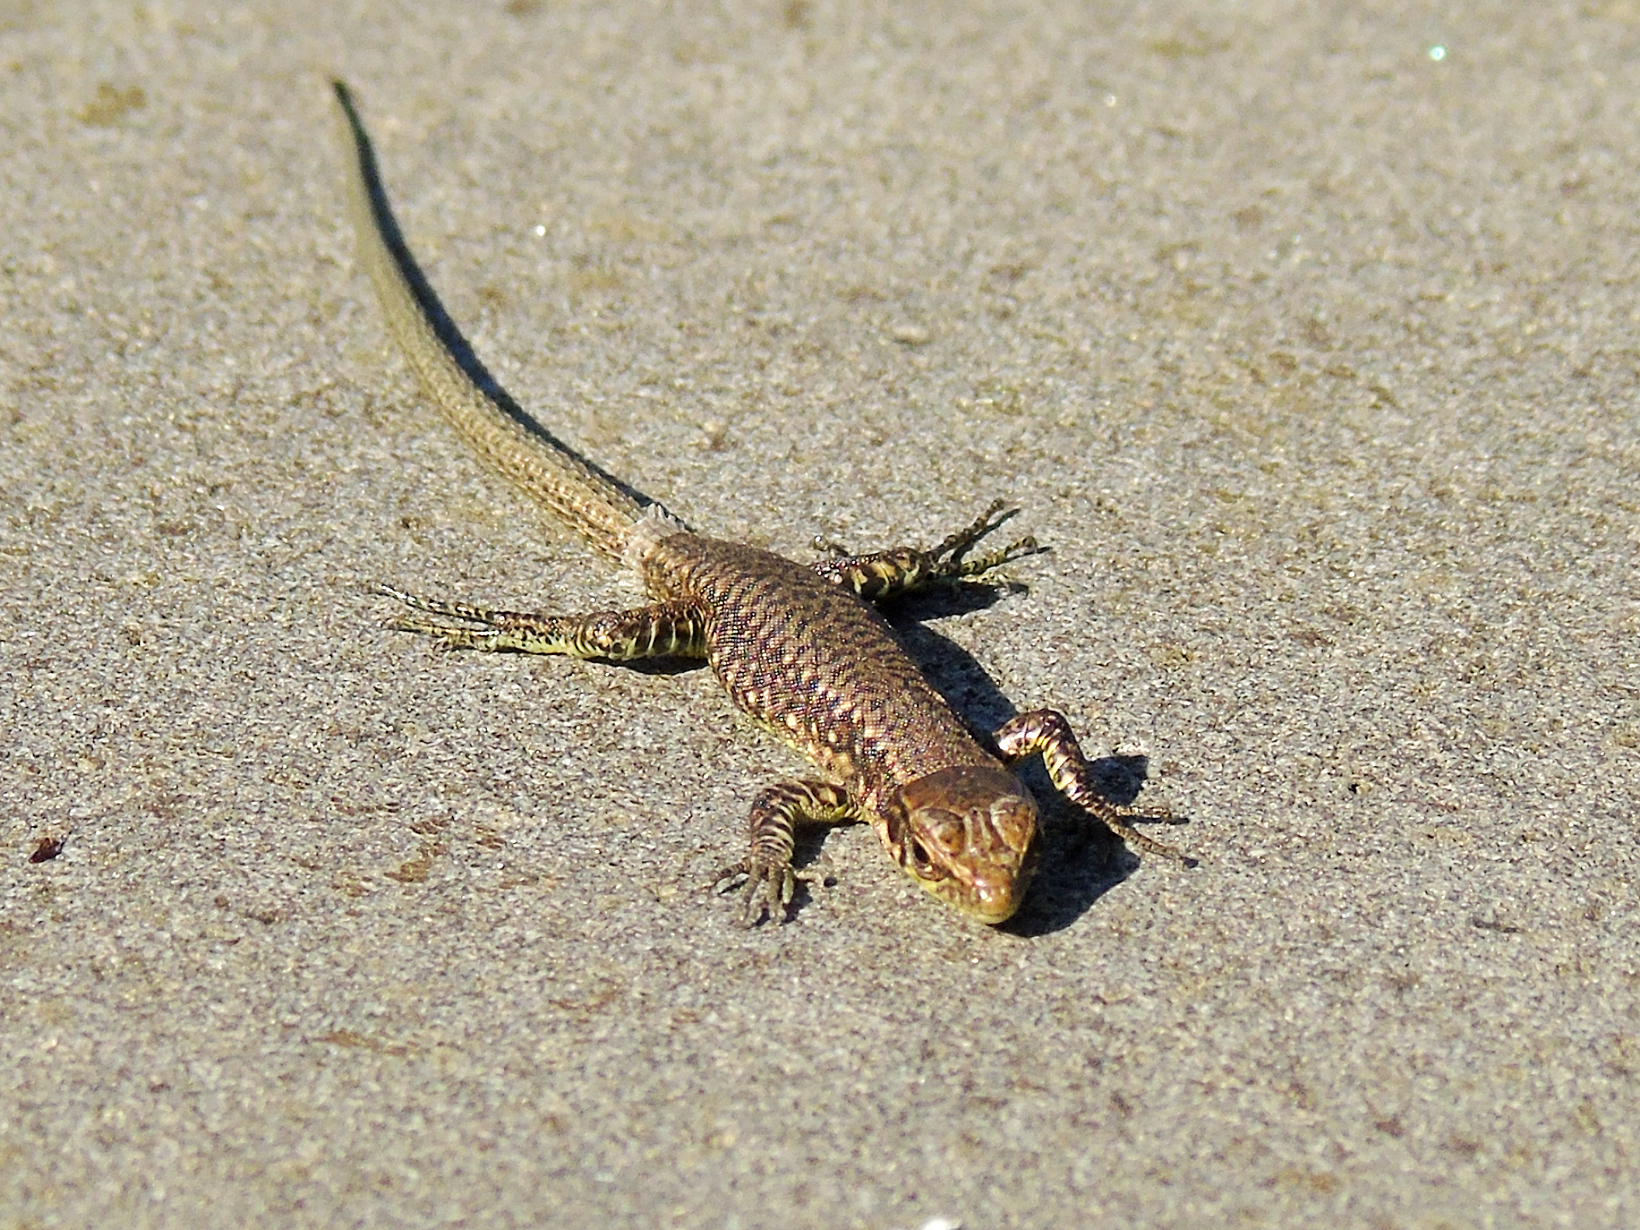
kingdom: Animalia
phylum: Chordata
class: Squamata
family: Lacertidae
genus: Darevskia
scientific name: Darevskia rudis
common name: Spiny-tailed lizard
